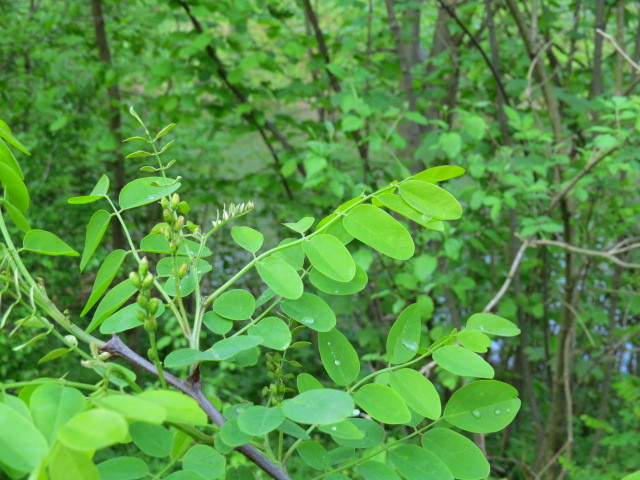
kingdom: Plantae
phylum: Tracheophyta
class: Magnoliopsida
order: Fabales
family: Fabaceae
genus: Robinia
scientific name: Robinia pseudoacacia
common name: Black locust
